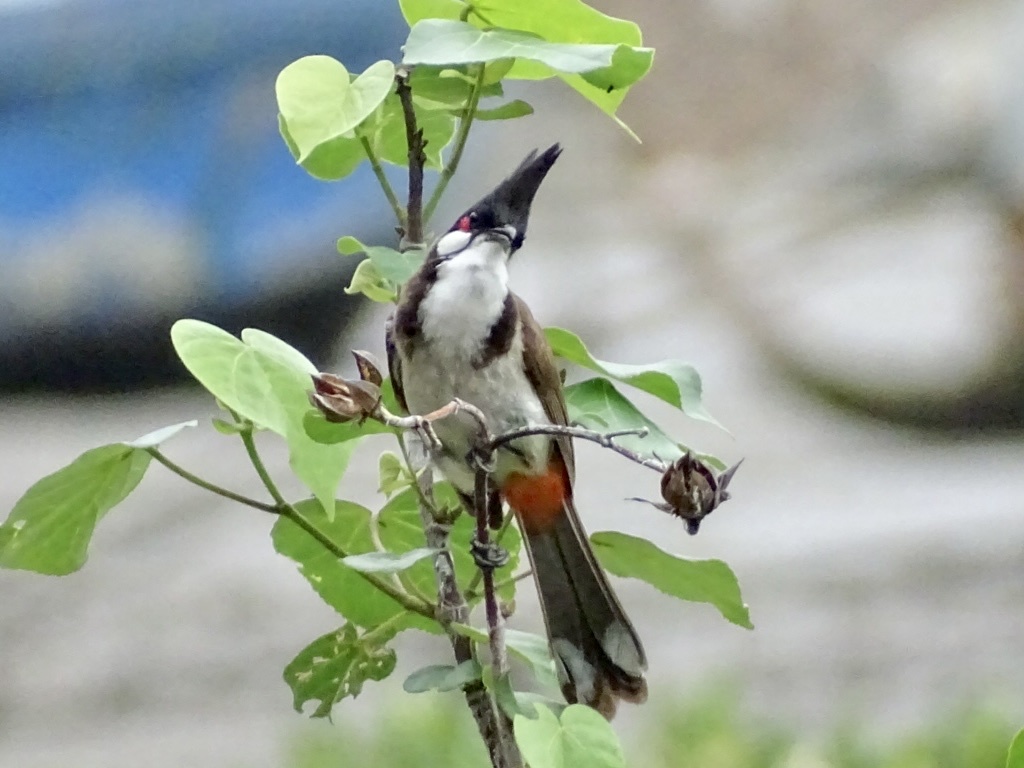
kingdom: Animalia
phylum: Chordata
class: Aves
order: Passeriformes
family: Pycnonotidae
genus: Pycnonotus
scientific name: Pycnonotus jocosus
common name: Red-whiskered bulbul
